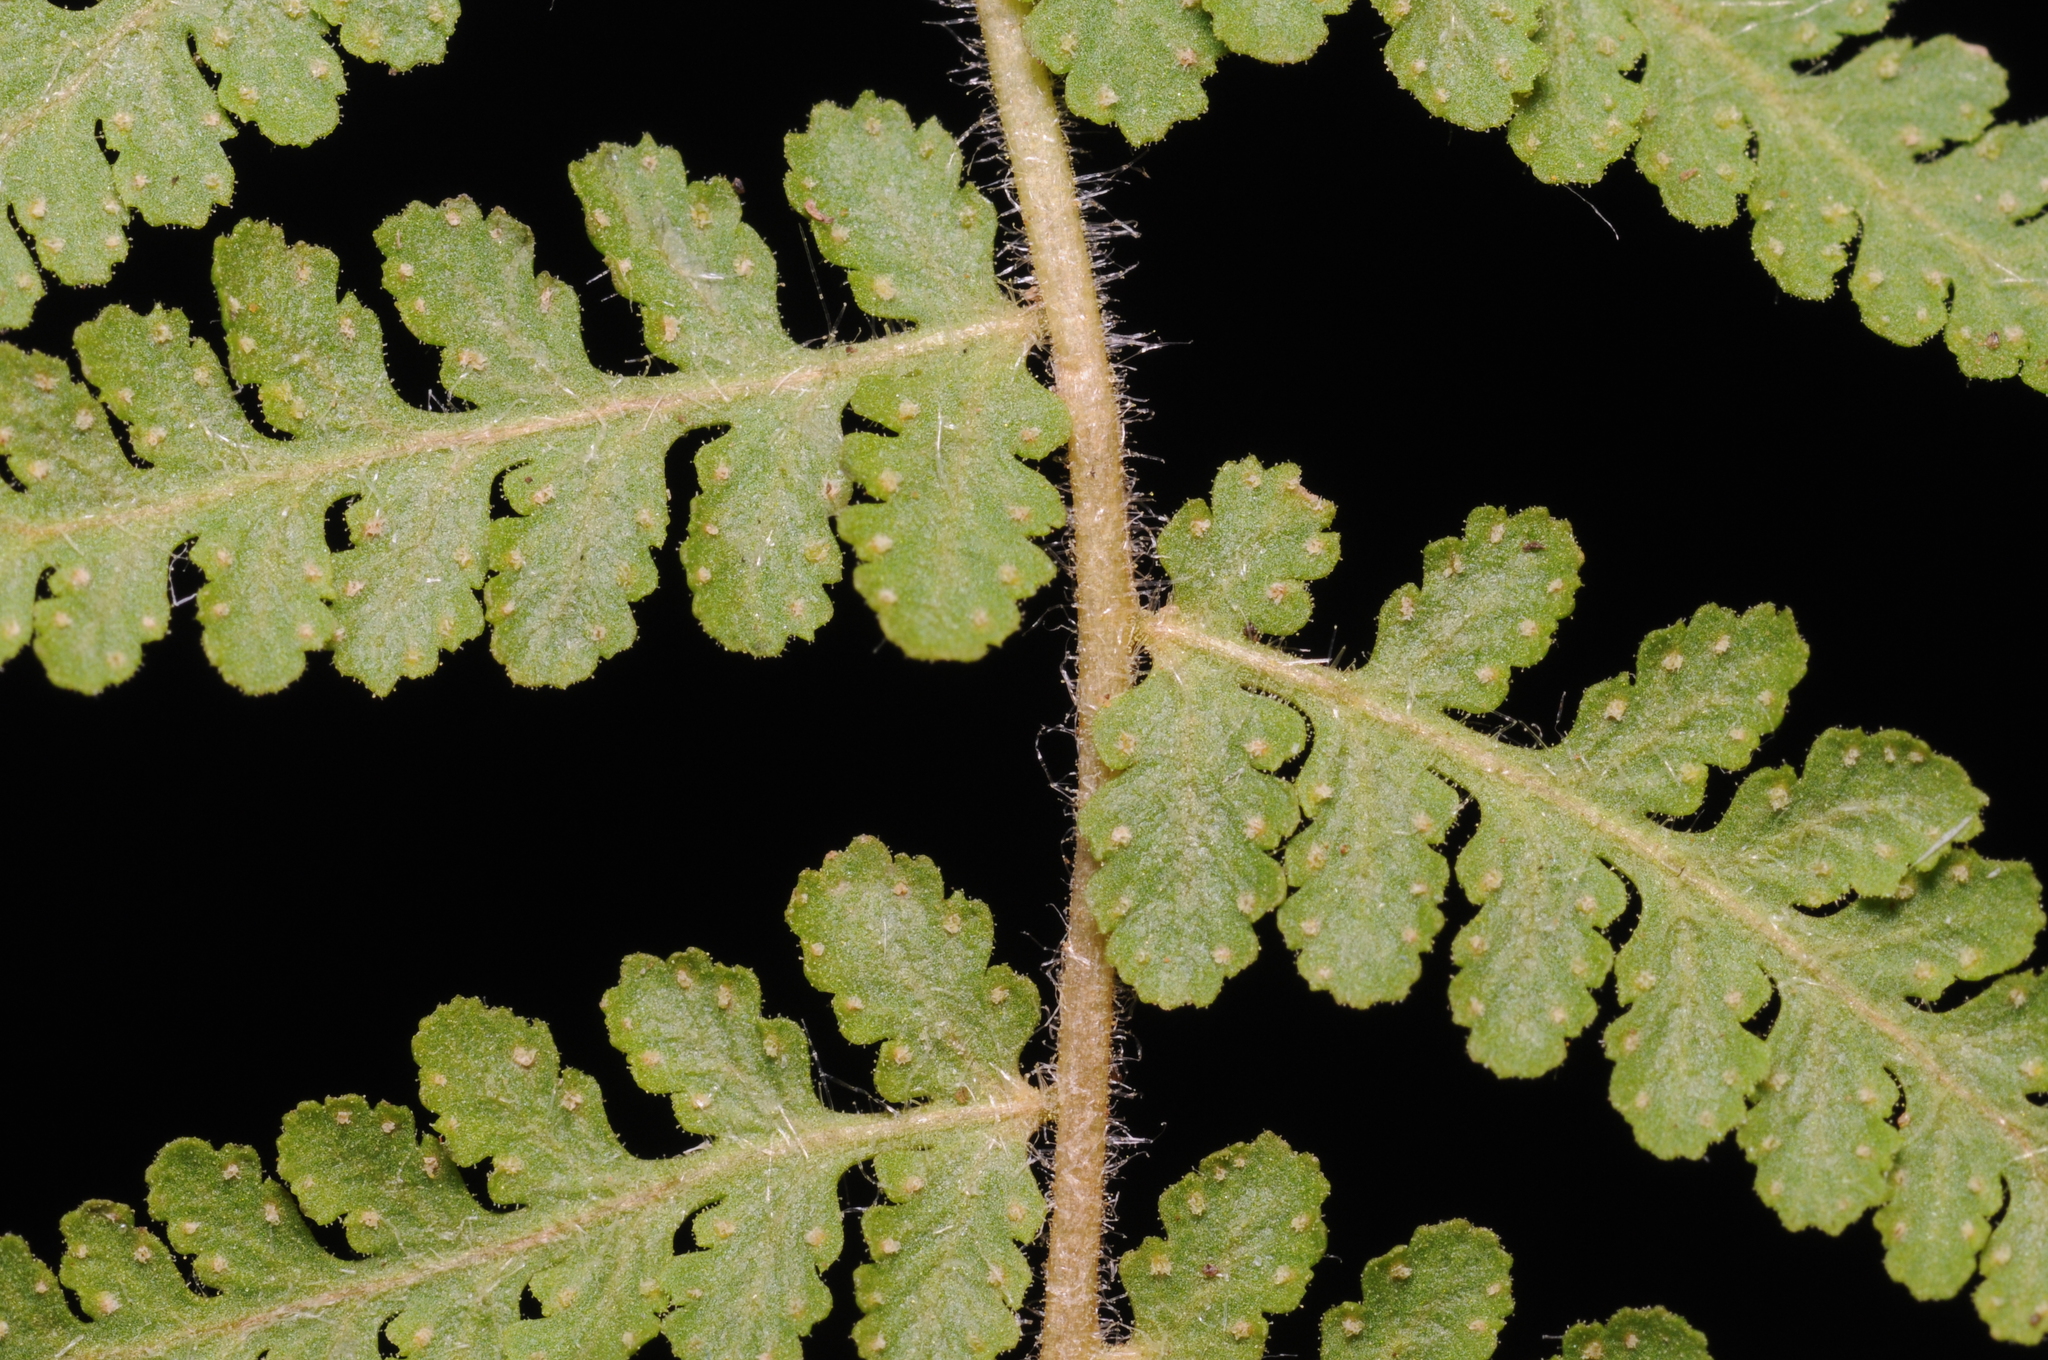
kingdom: Plantae
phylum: Tracheophyta
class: Polypodiopsida
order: Polypodiales
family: Woodsiaceae
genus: Physematium
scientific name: Physematium scopulinum
